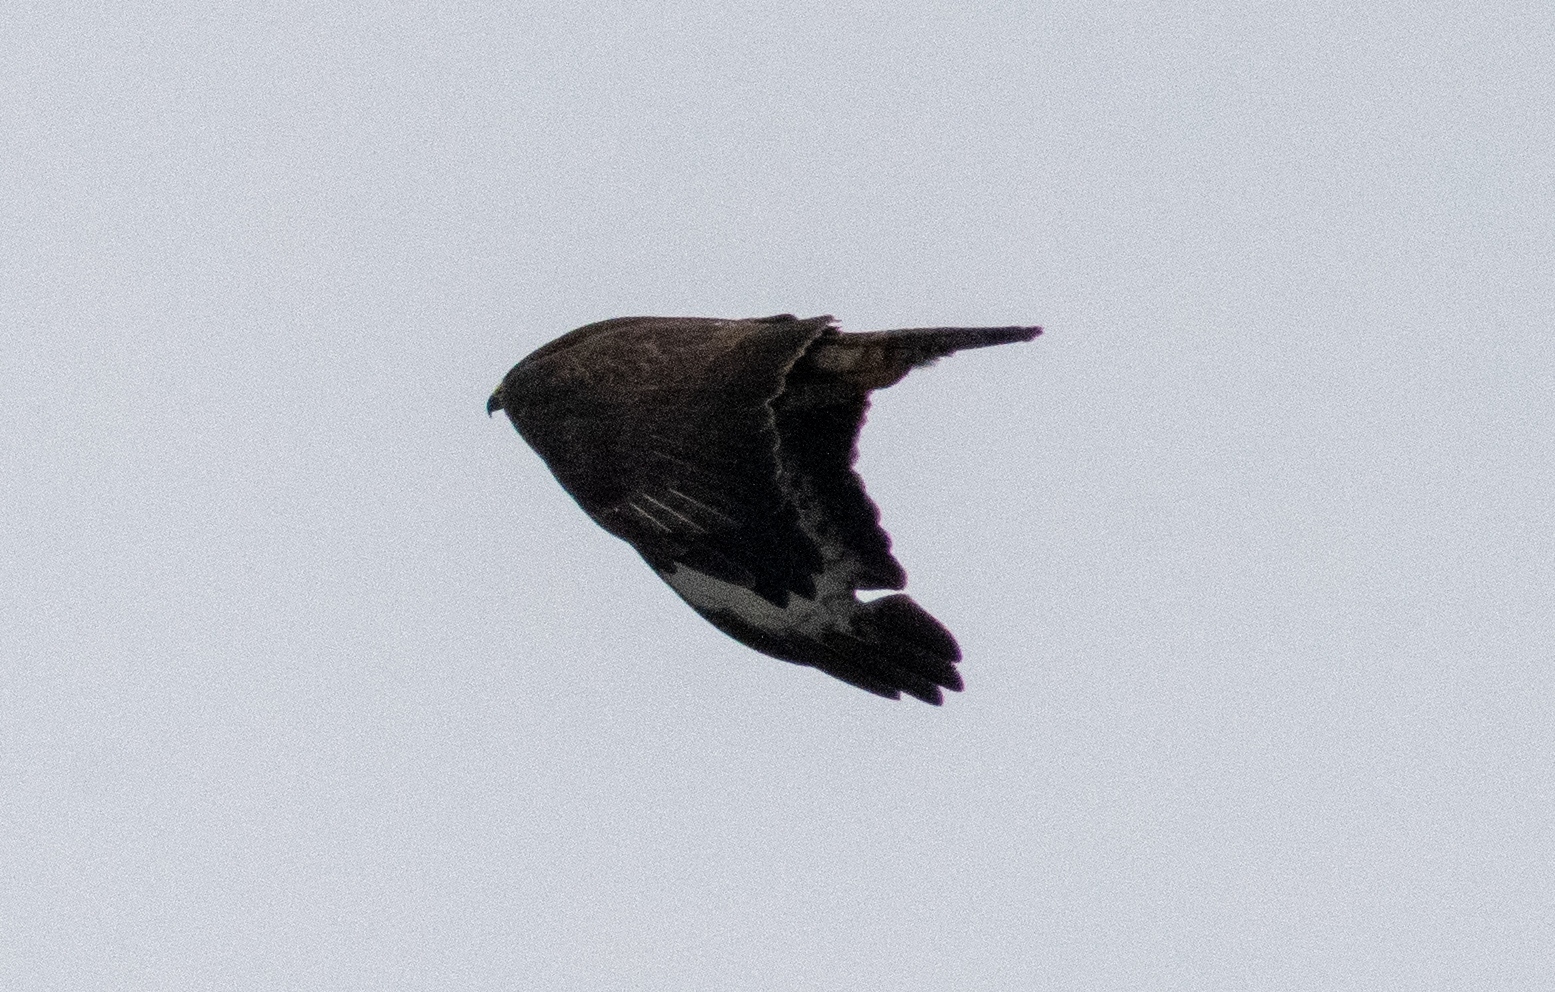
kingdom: Animalia
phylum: Chordata
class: Aves
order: Accipitriformes
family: Accipitridae
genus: Buteo
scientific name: Buteo buteo
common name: Common buzzard
